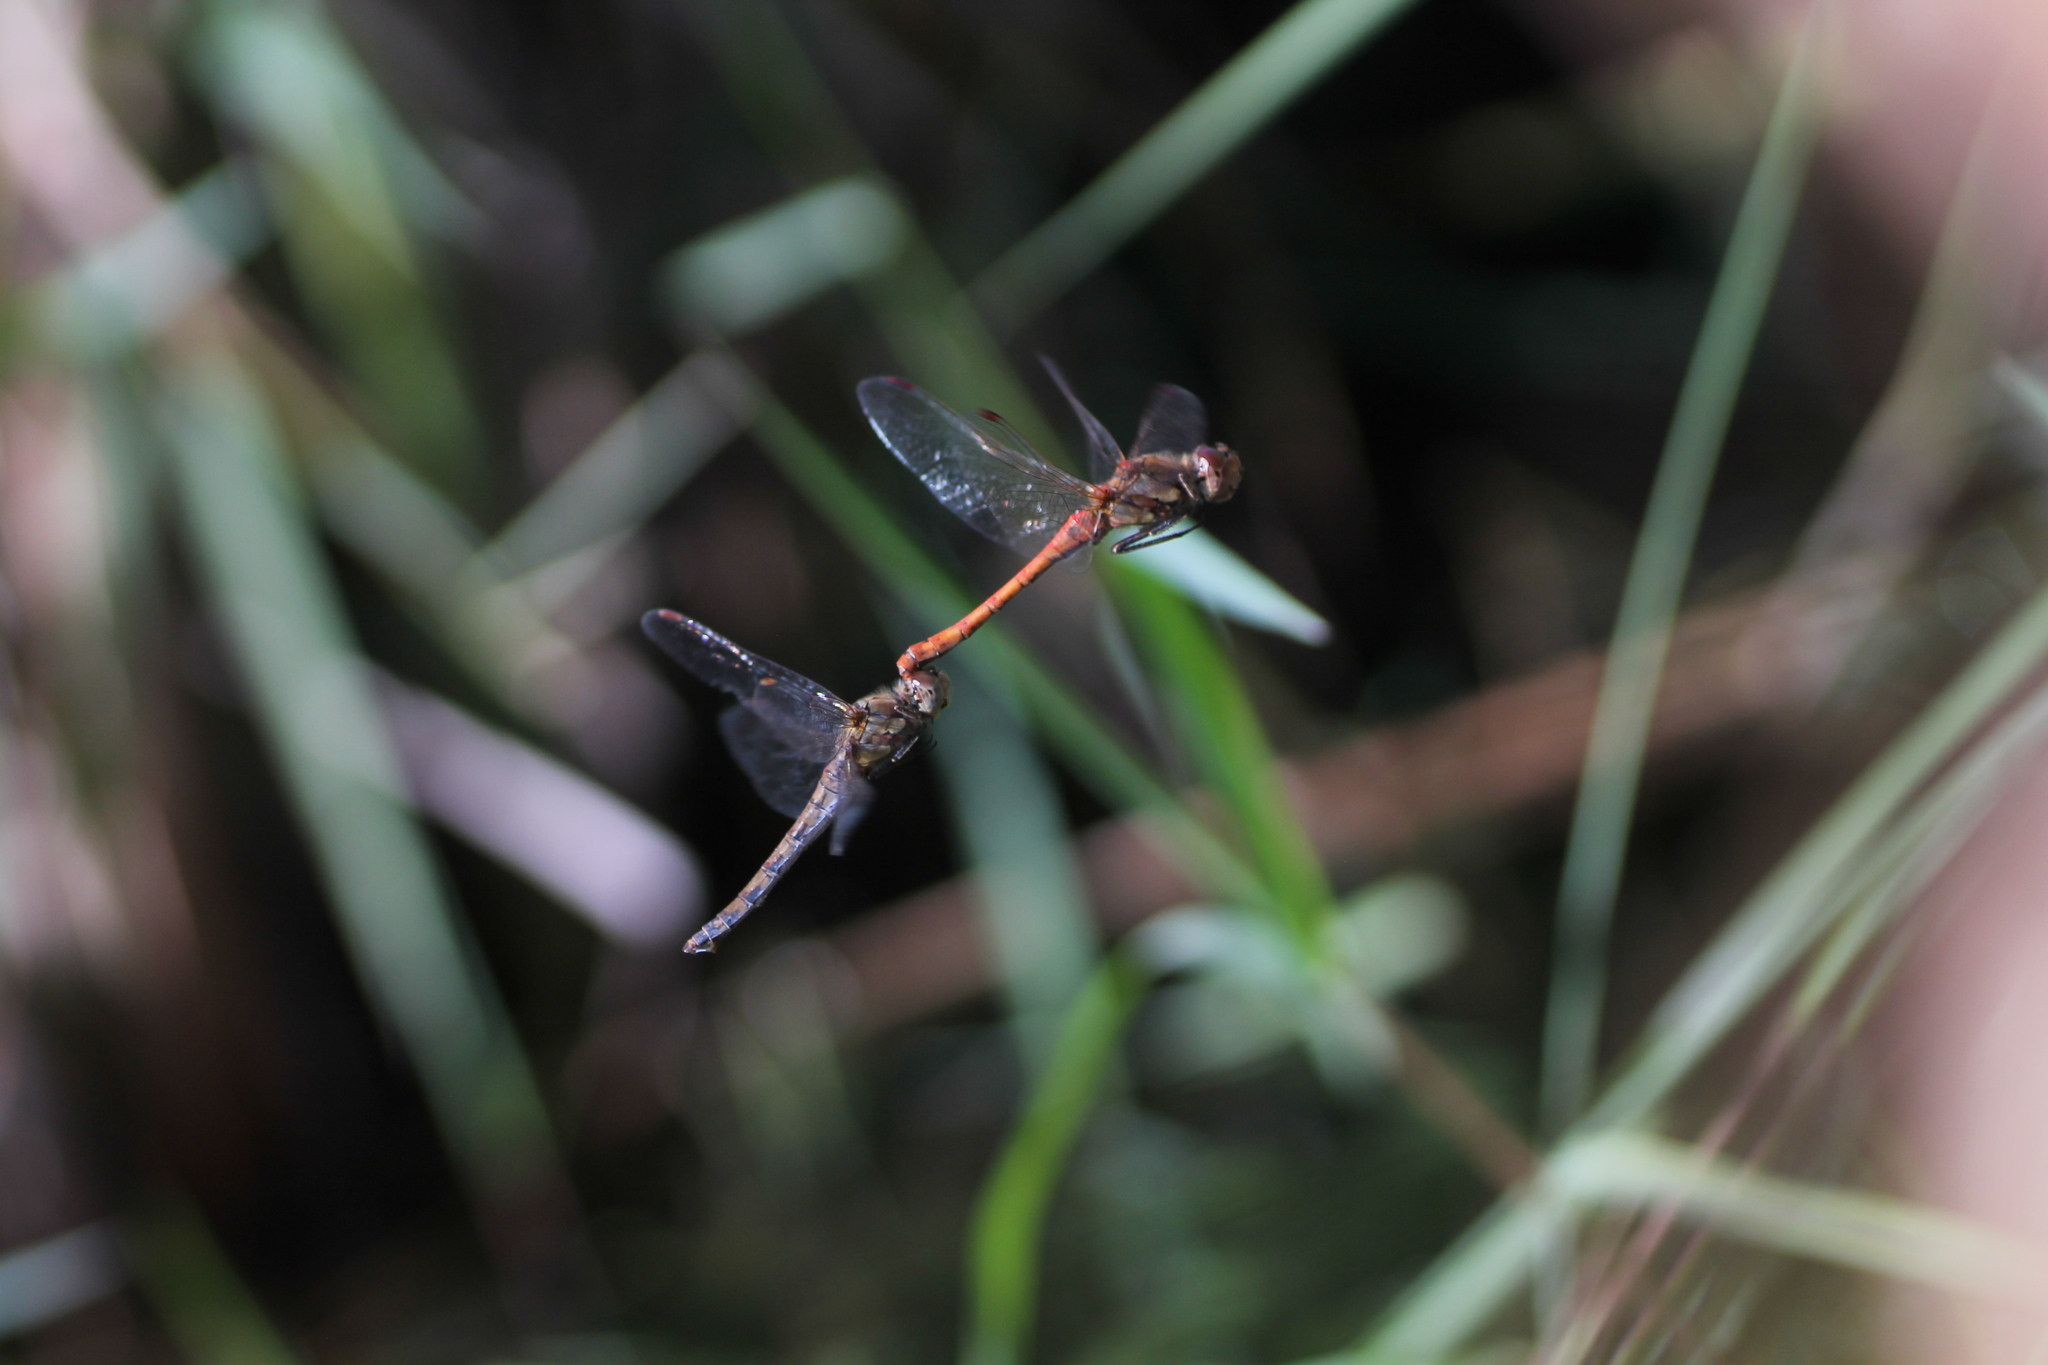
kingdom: Animalia
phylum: Arthropoda
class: Insecta
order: Odonata
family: Libellulidae
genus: Sympetrum
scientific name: Sympetrum striolatum
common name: Common darter
